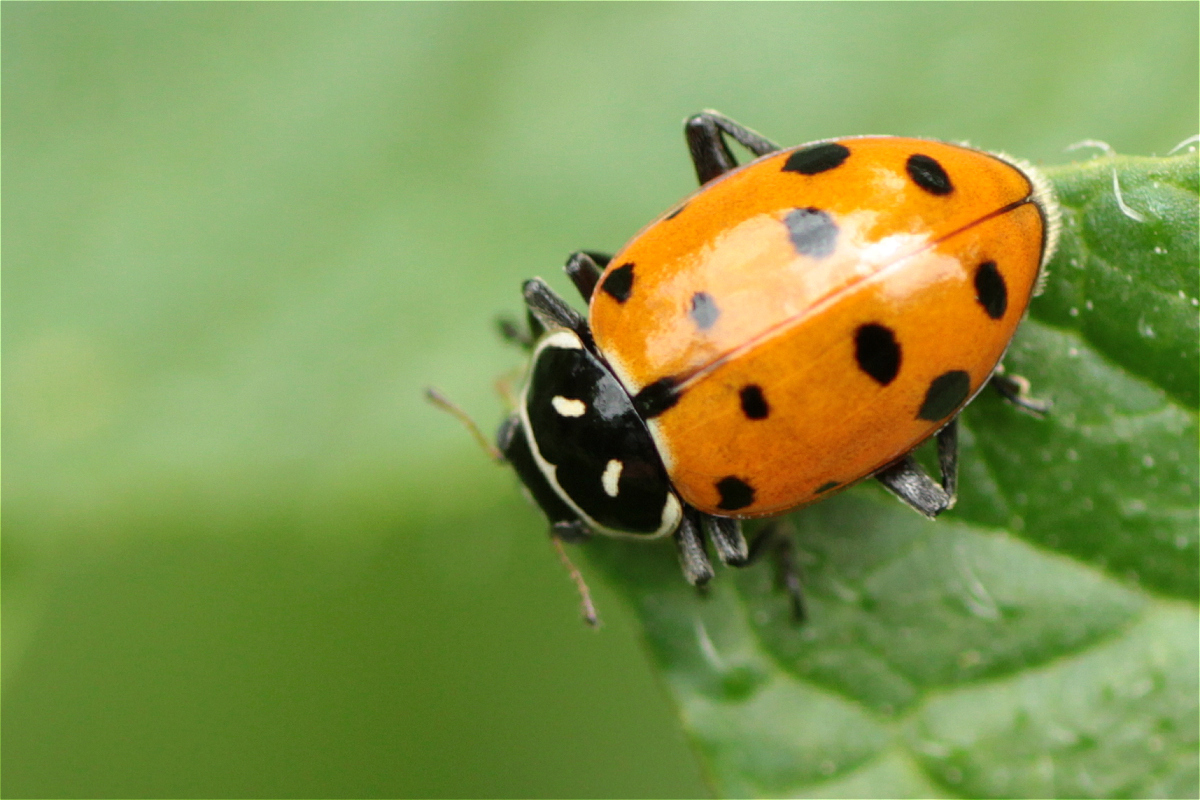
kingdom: Animalia
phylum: Arthropoda
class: Insecta
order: Coleoptera
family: Coccinellidae
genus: Hippodamia
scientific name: Hippodamia convergens
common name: Convergent lady beetle
